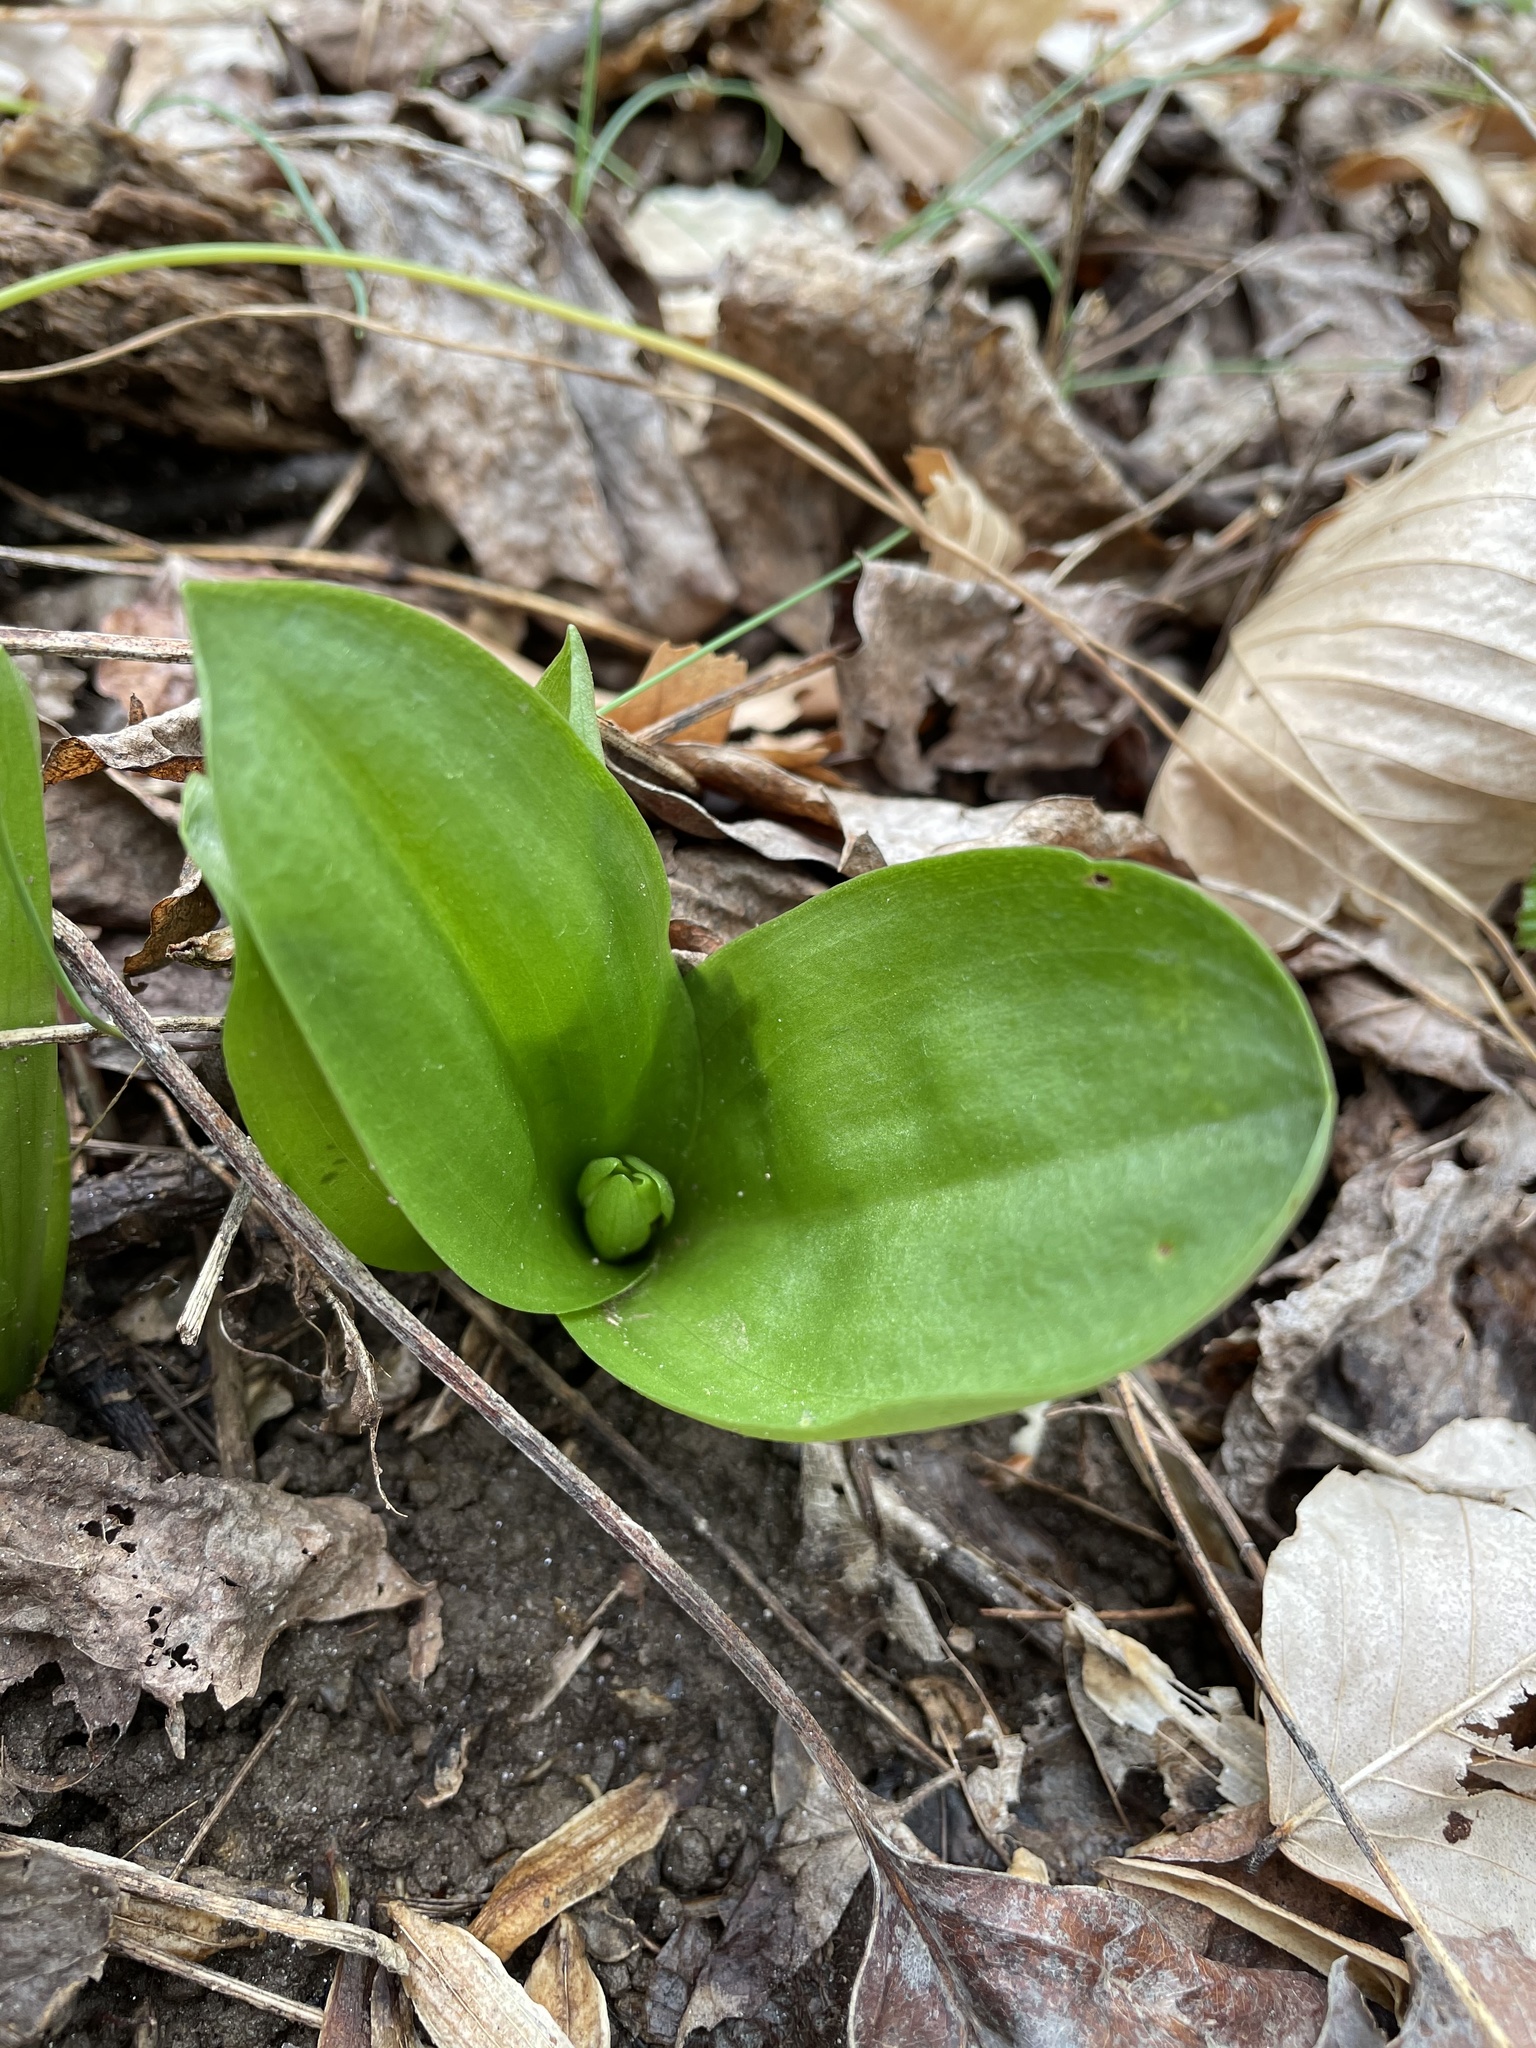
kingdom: Plantae
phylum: Tracheophyta
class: Liliopsida
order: Asparagales
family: Orchidaceae
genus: Galearis
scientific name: Galearis spectabilis
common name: Purple-hooded orchis
